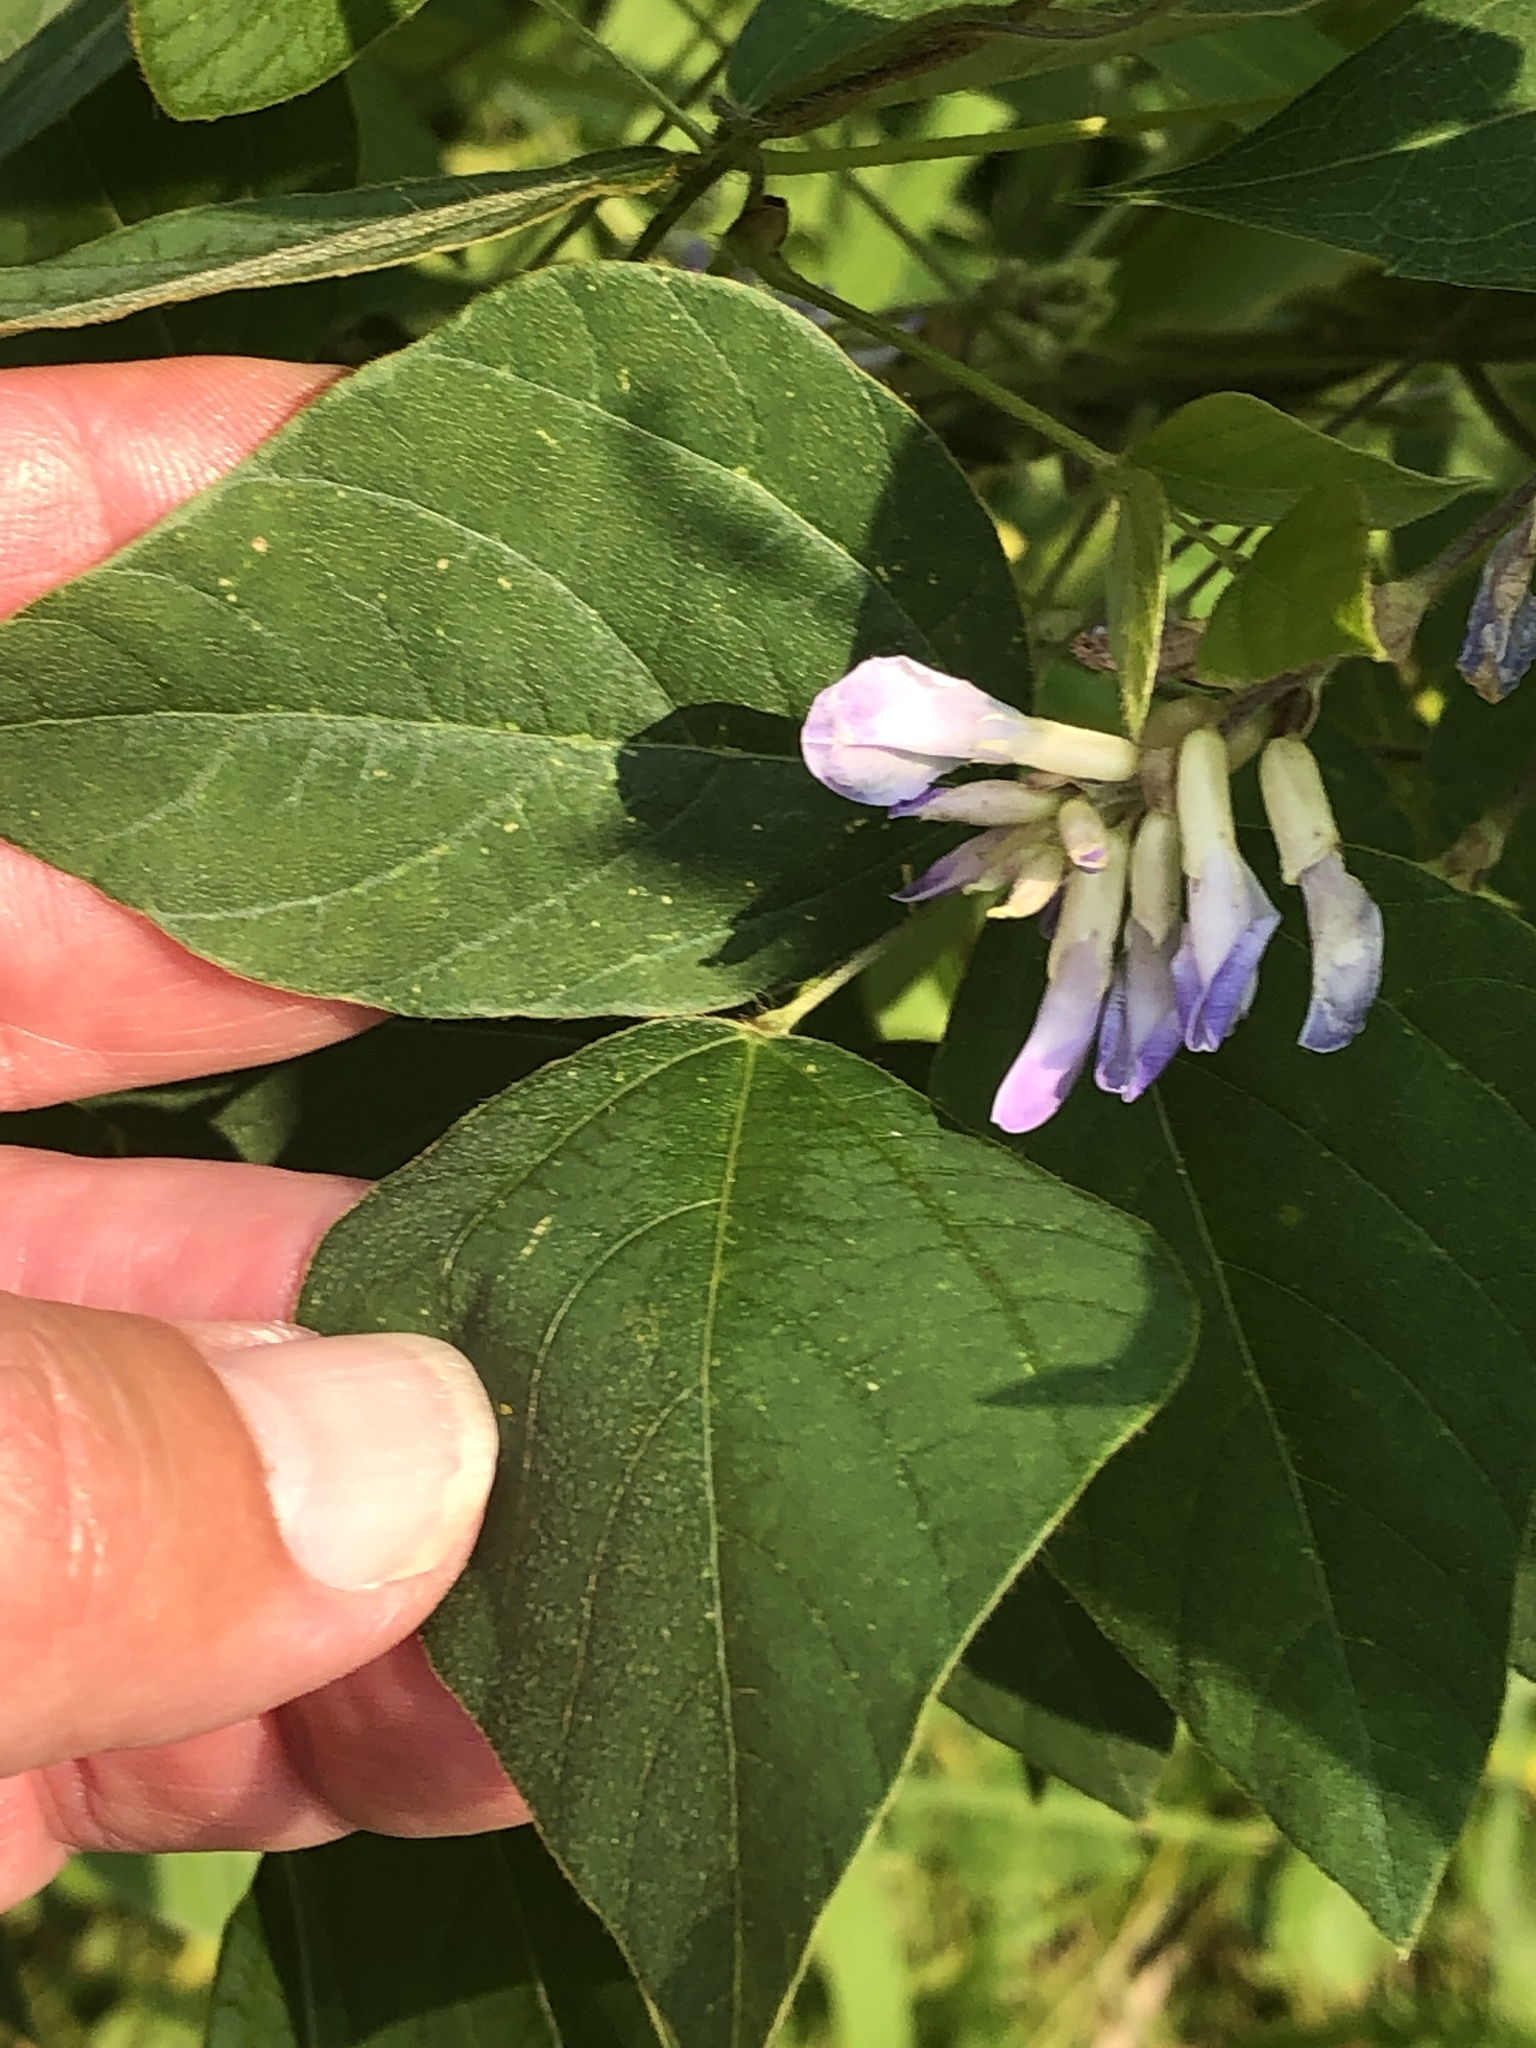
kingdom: Plantae
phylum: Tracheophyta
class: Magnoliopsida
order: Fabales
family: Fabaceae
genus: Amphicarpaea
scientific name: Amphicarpaea bracteata
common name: American hog peanut
